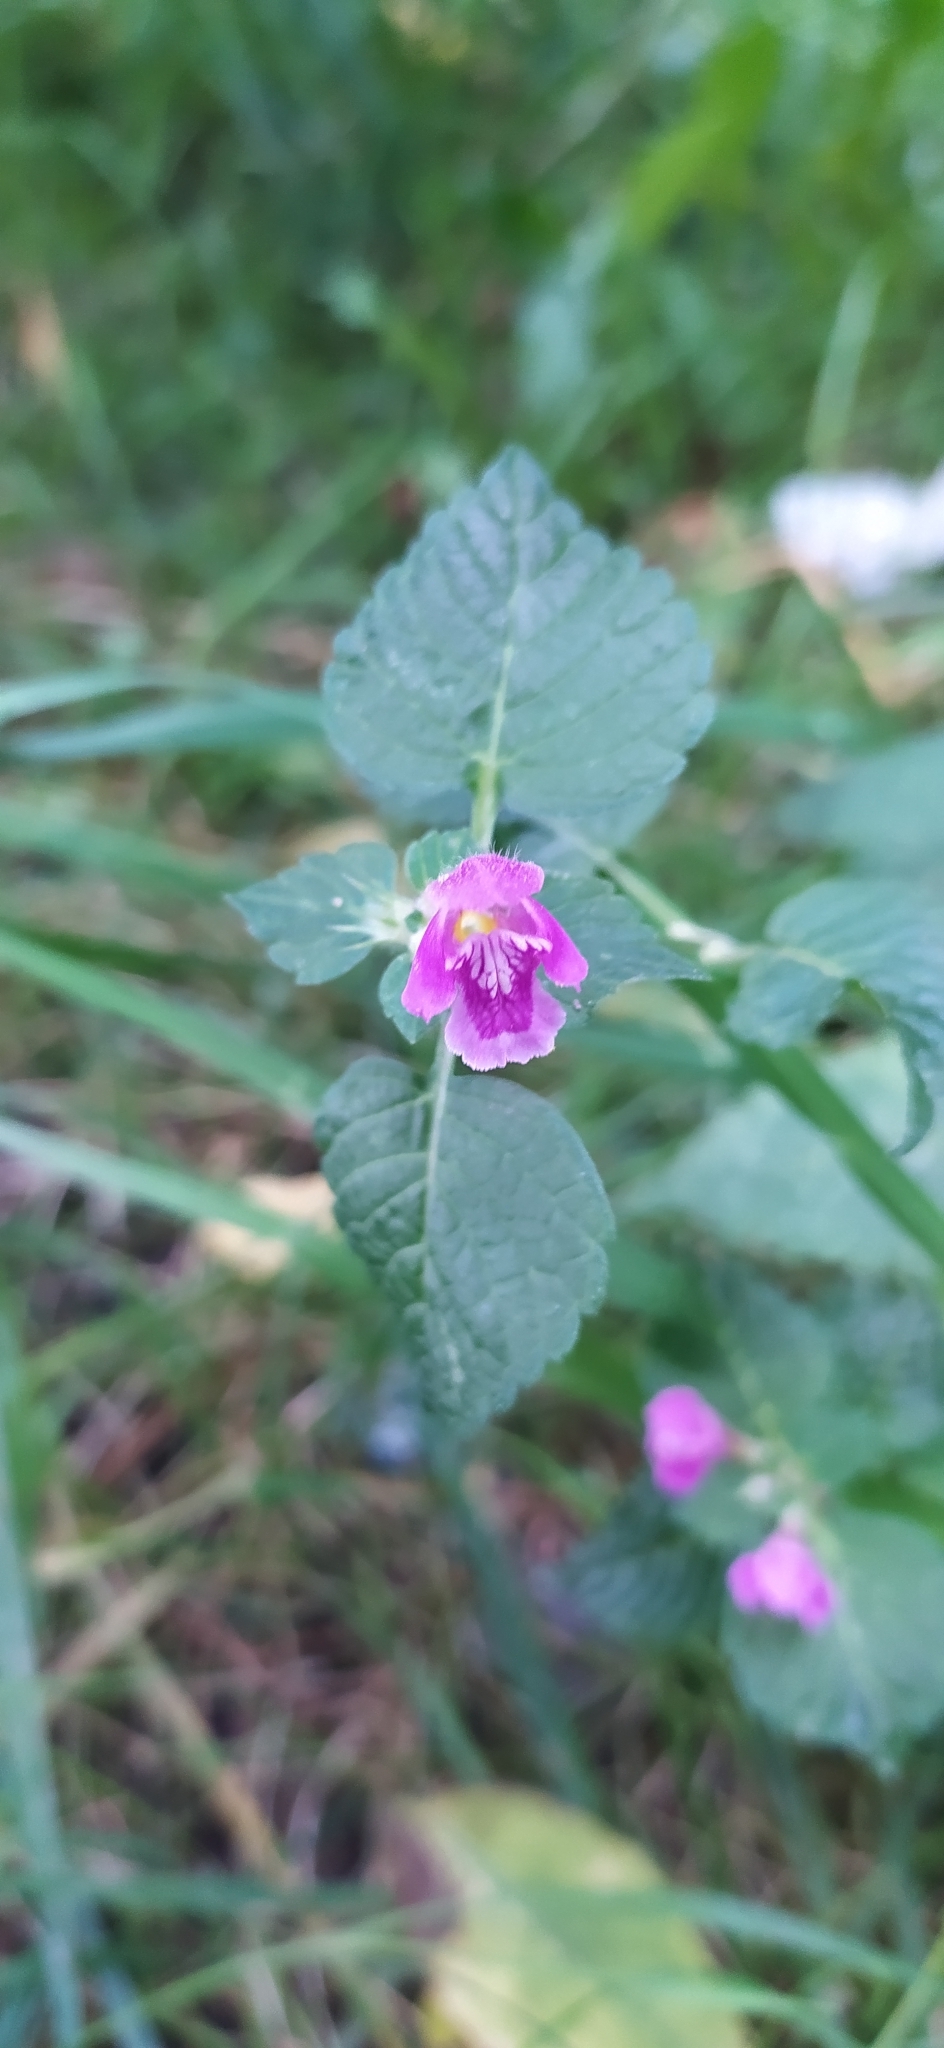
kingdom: Plantae
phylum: Tracheophyta
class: Magnoliopsida
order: Lamiales
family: Lamiaceae
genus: Galeopsis
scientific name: Galeopsis pubescens
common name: Downy hemp-nettle
